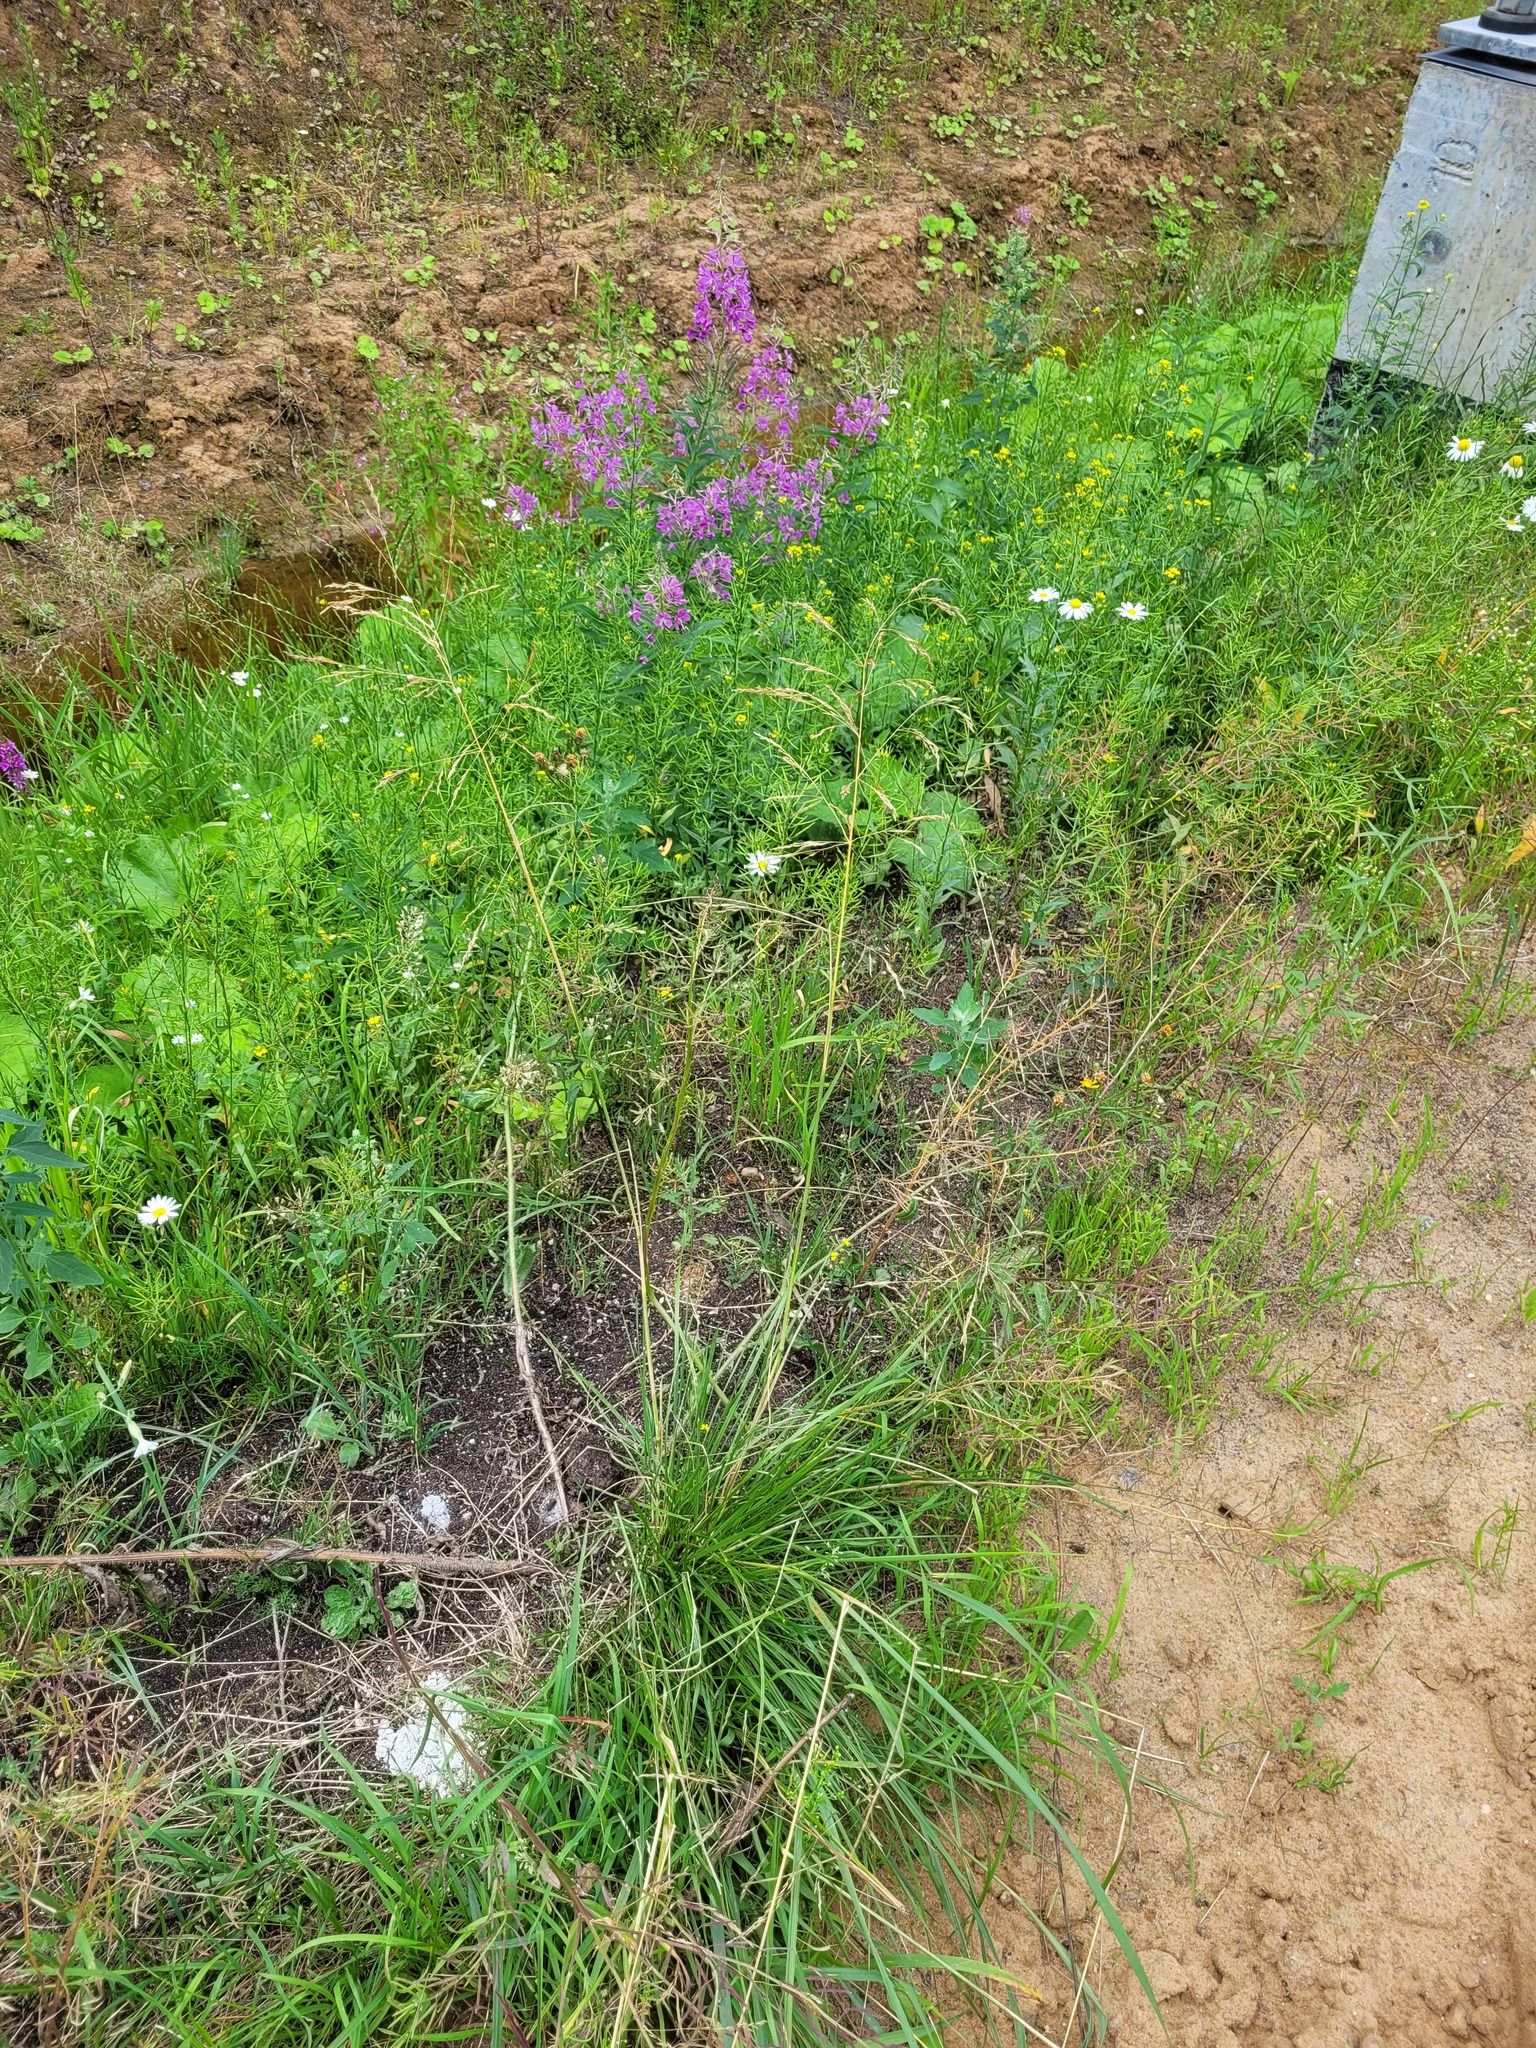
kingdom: Plantae
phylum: Tracheophyta
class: Liliopsida
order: Poales
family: Poaceae
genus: Deschampsia
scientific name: Deschampsia cespitosa
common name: Tufted hair-grass
